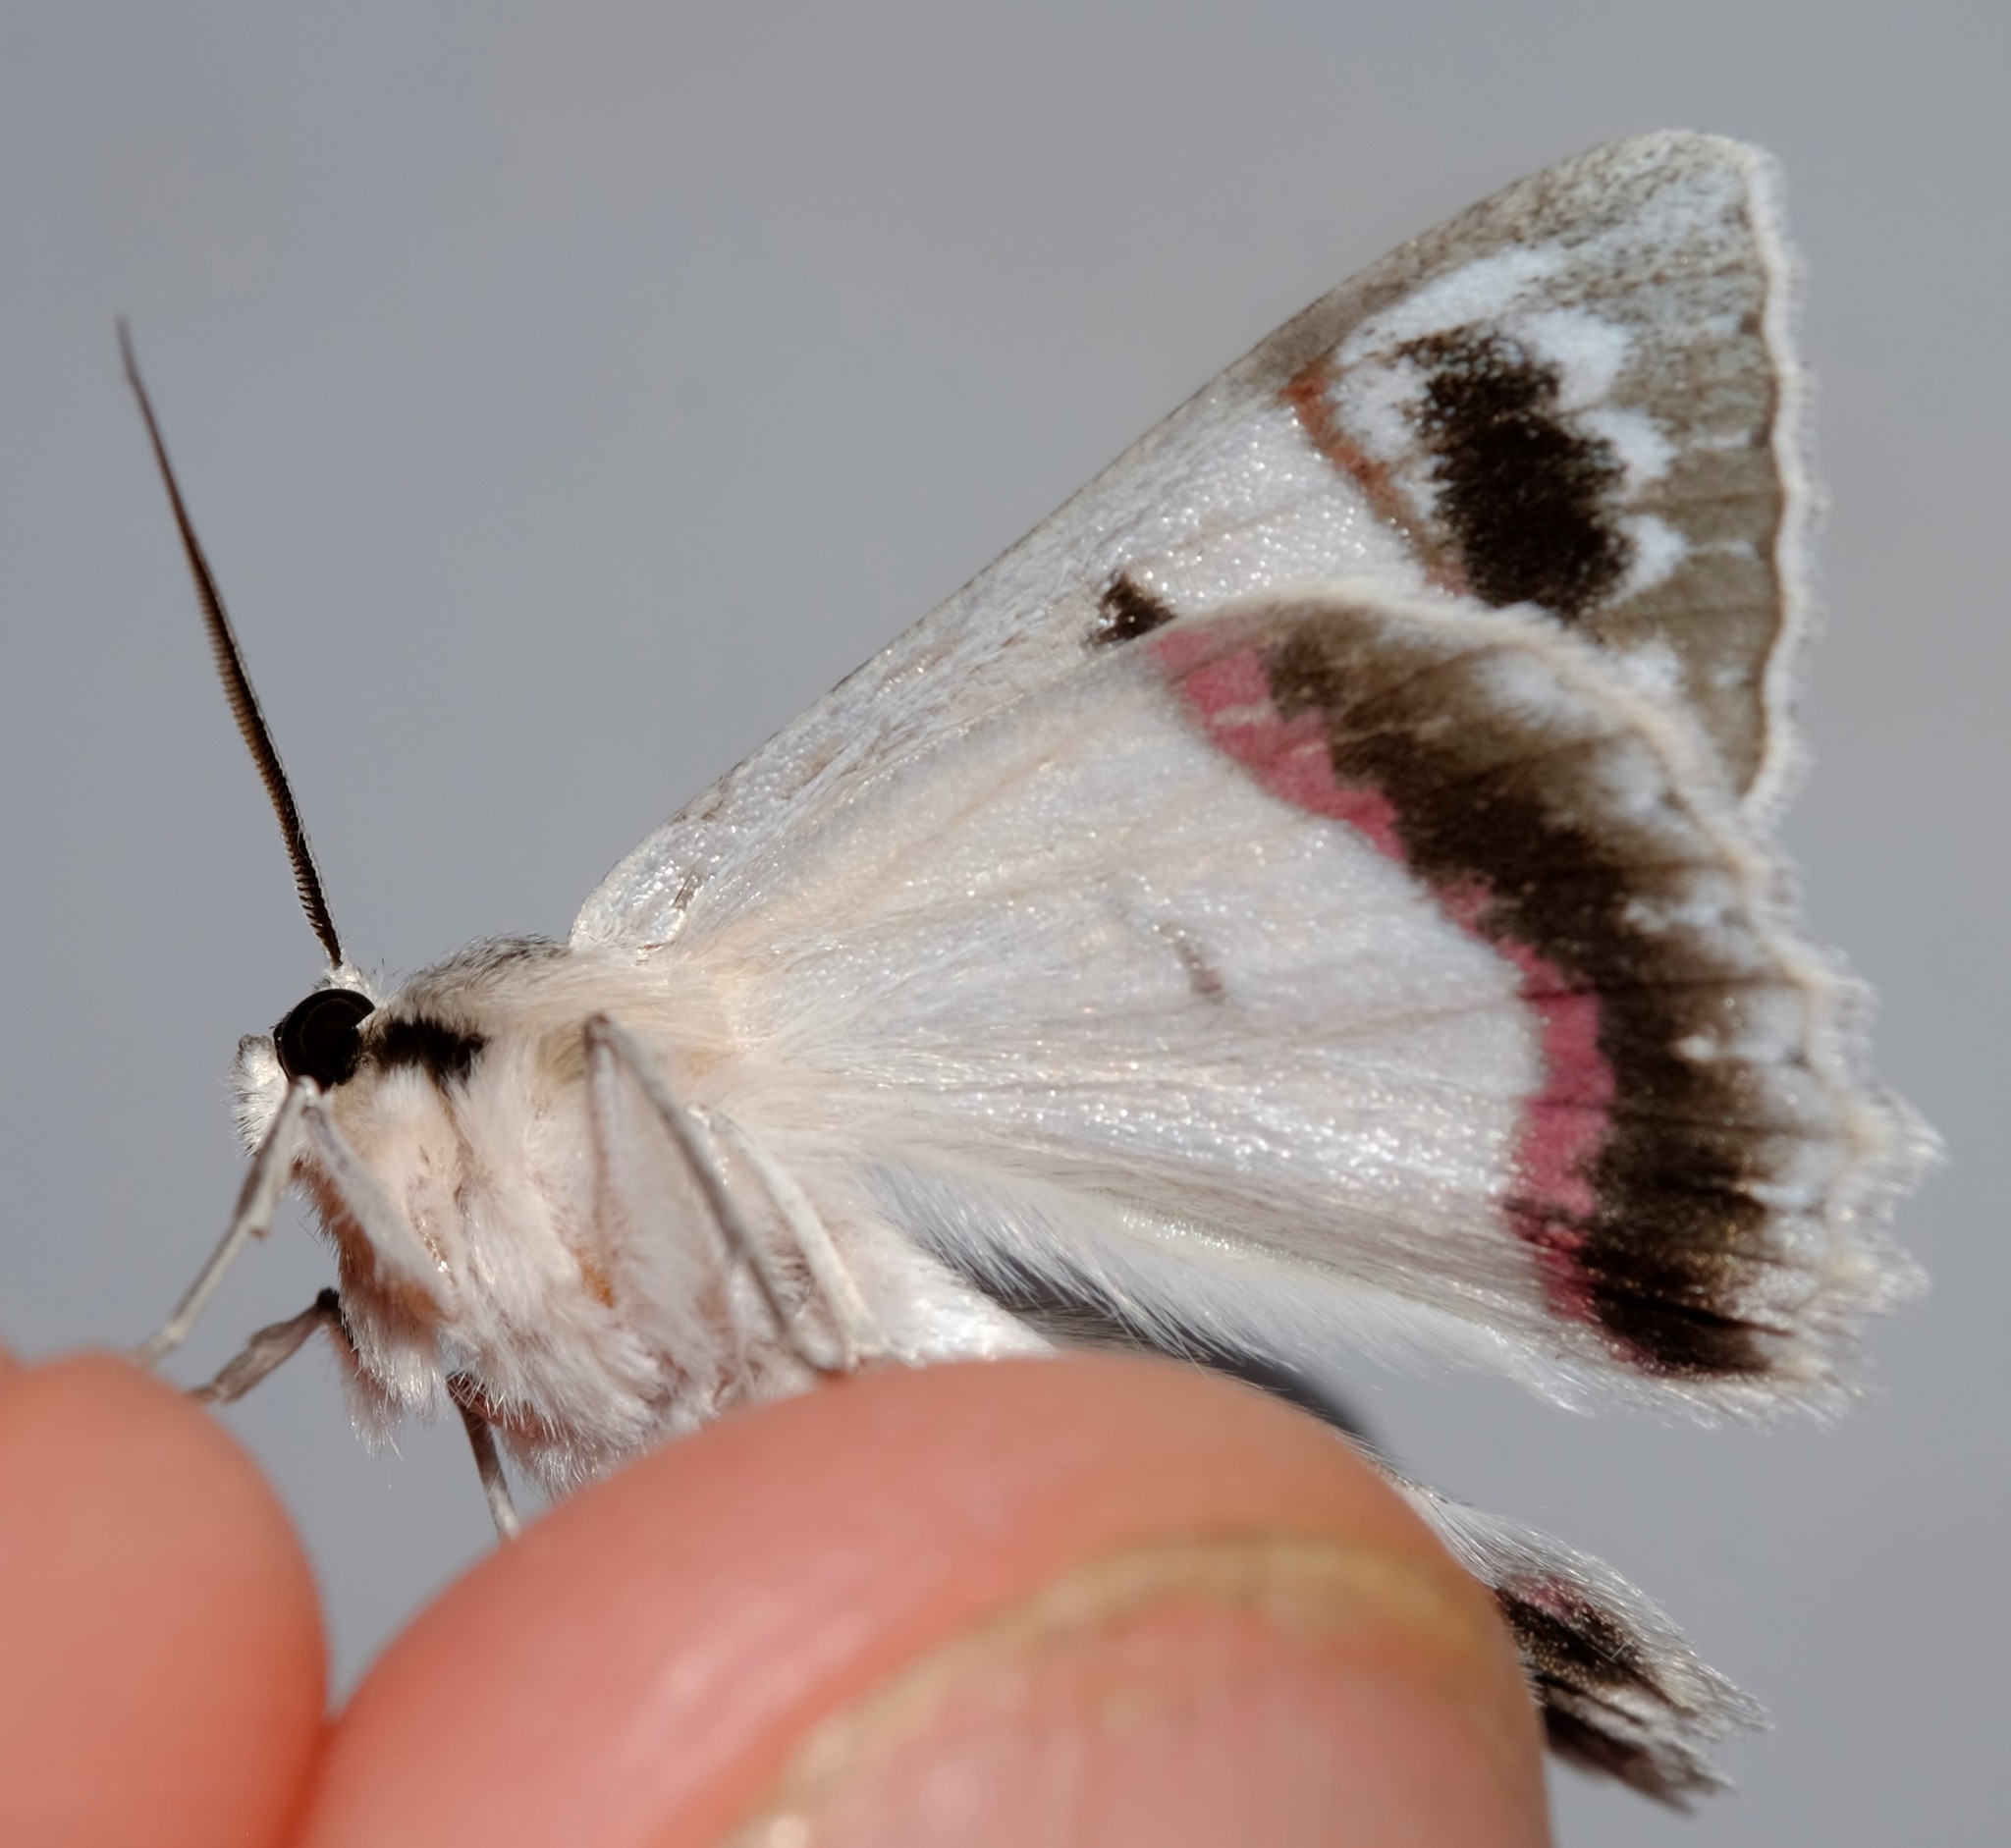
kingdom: Animalia
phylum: Arthropoda
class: Insecta
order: Lepidoptera
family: Geometridae
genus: Crypsiphona
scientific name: Crypsiphona ocultaria
